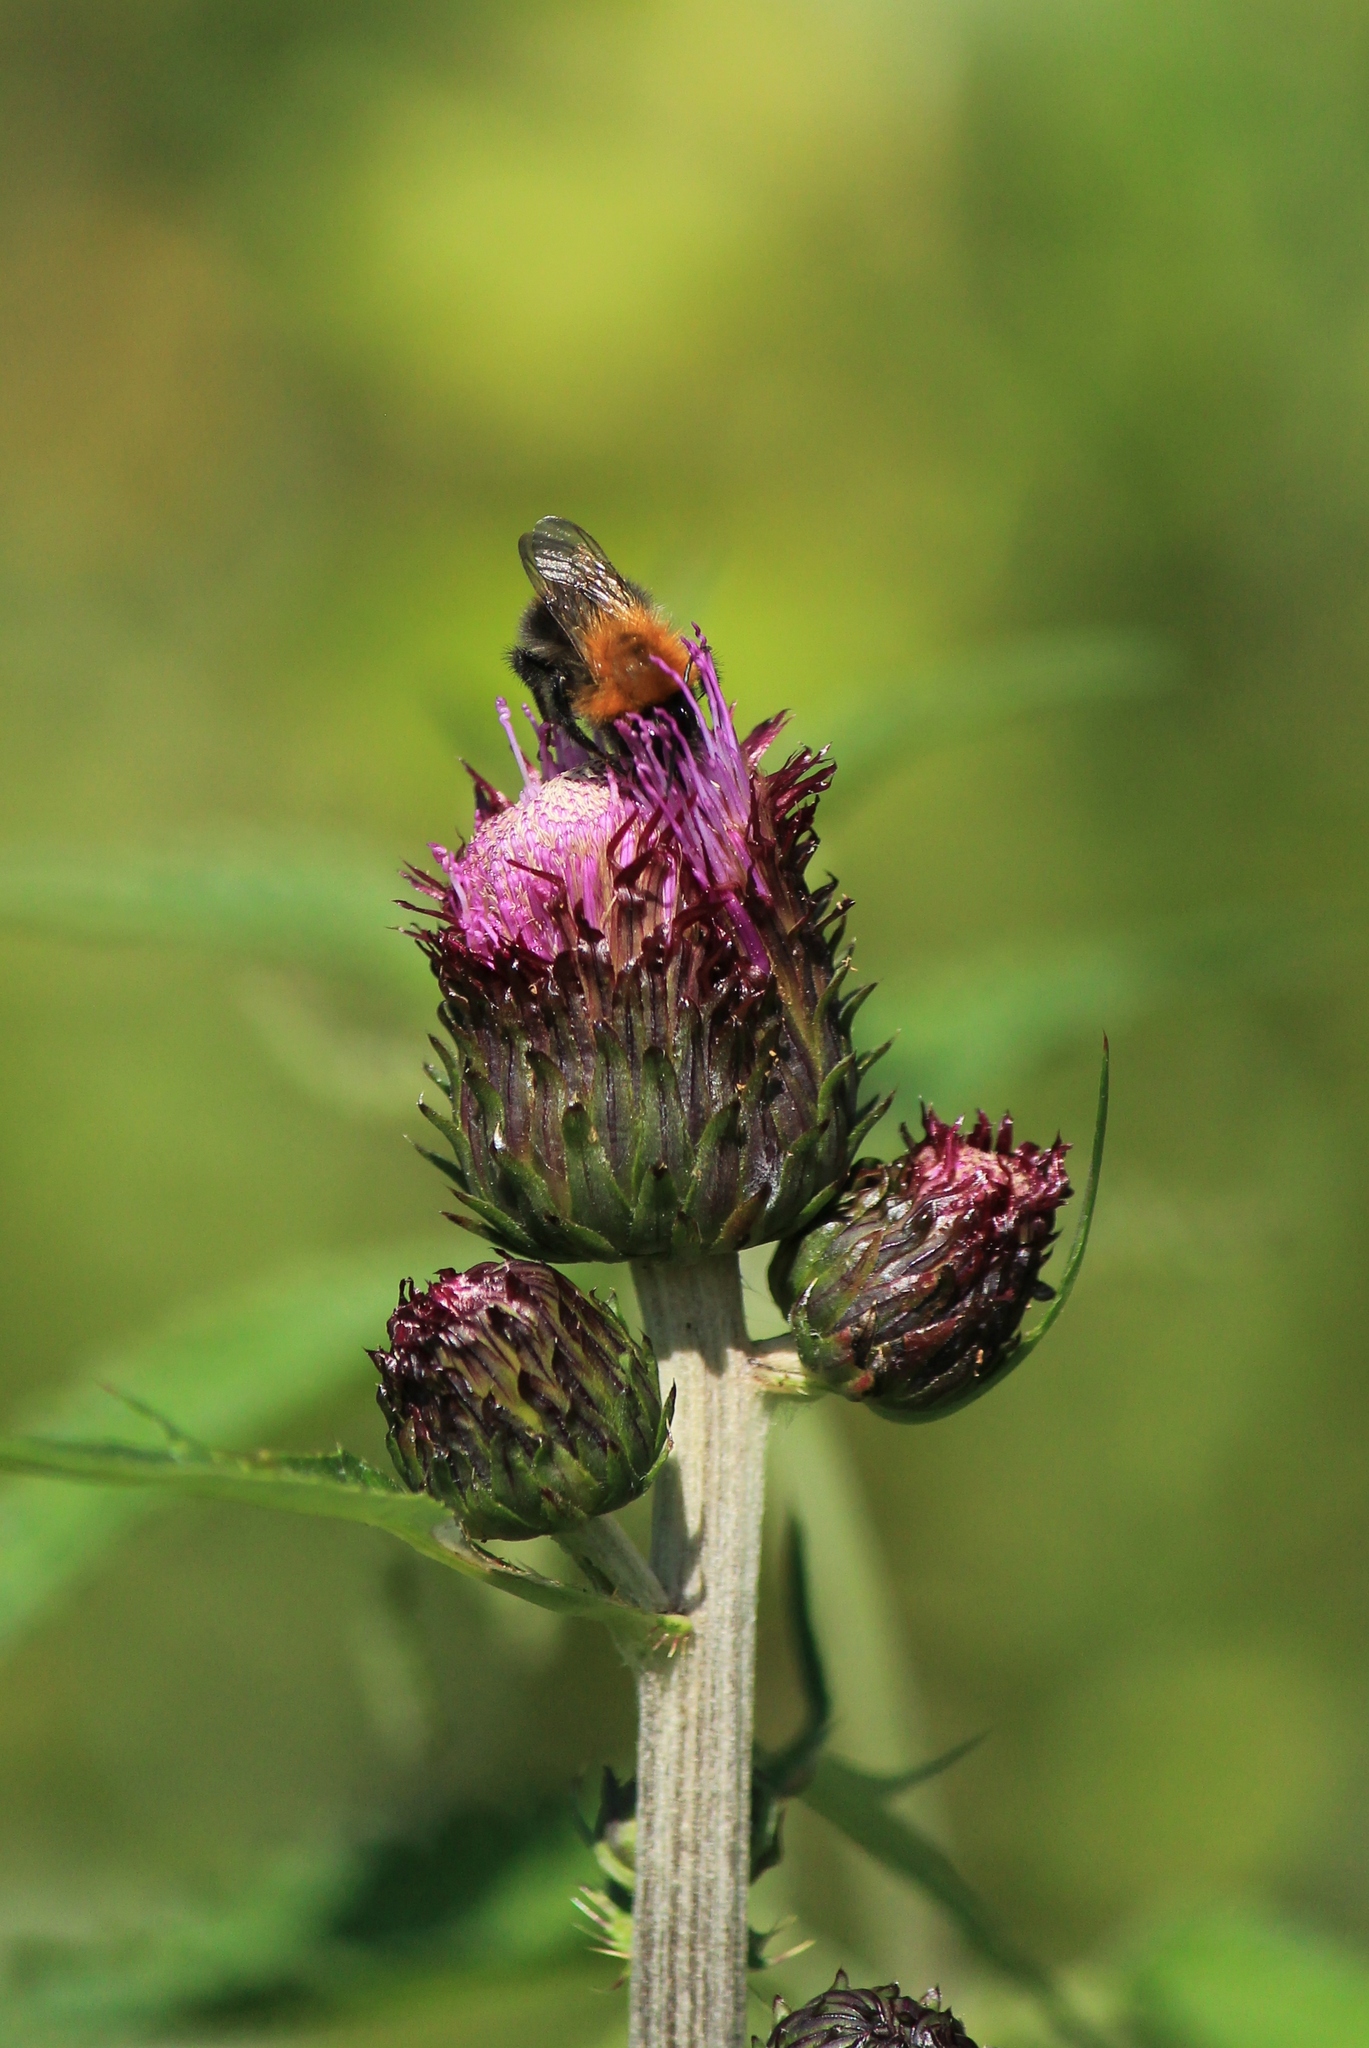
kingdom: Animalia
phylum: Arthropoda
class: Insecta
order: Hymenoptera
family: Apidae
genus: Bombus
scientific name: Bombus pascuorum
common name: Common carder bee
